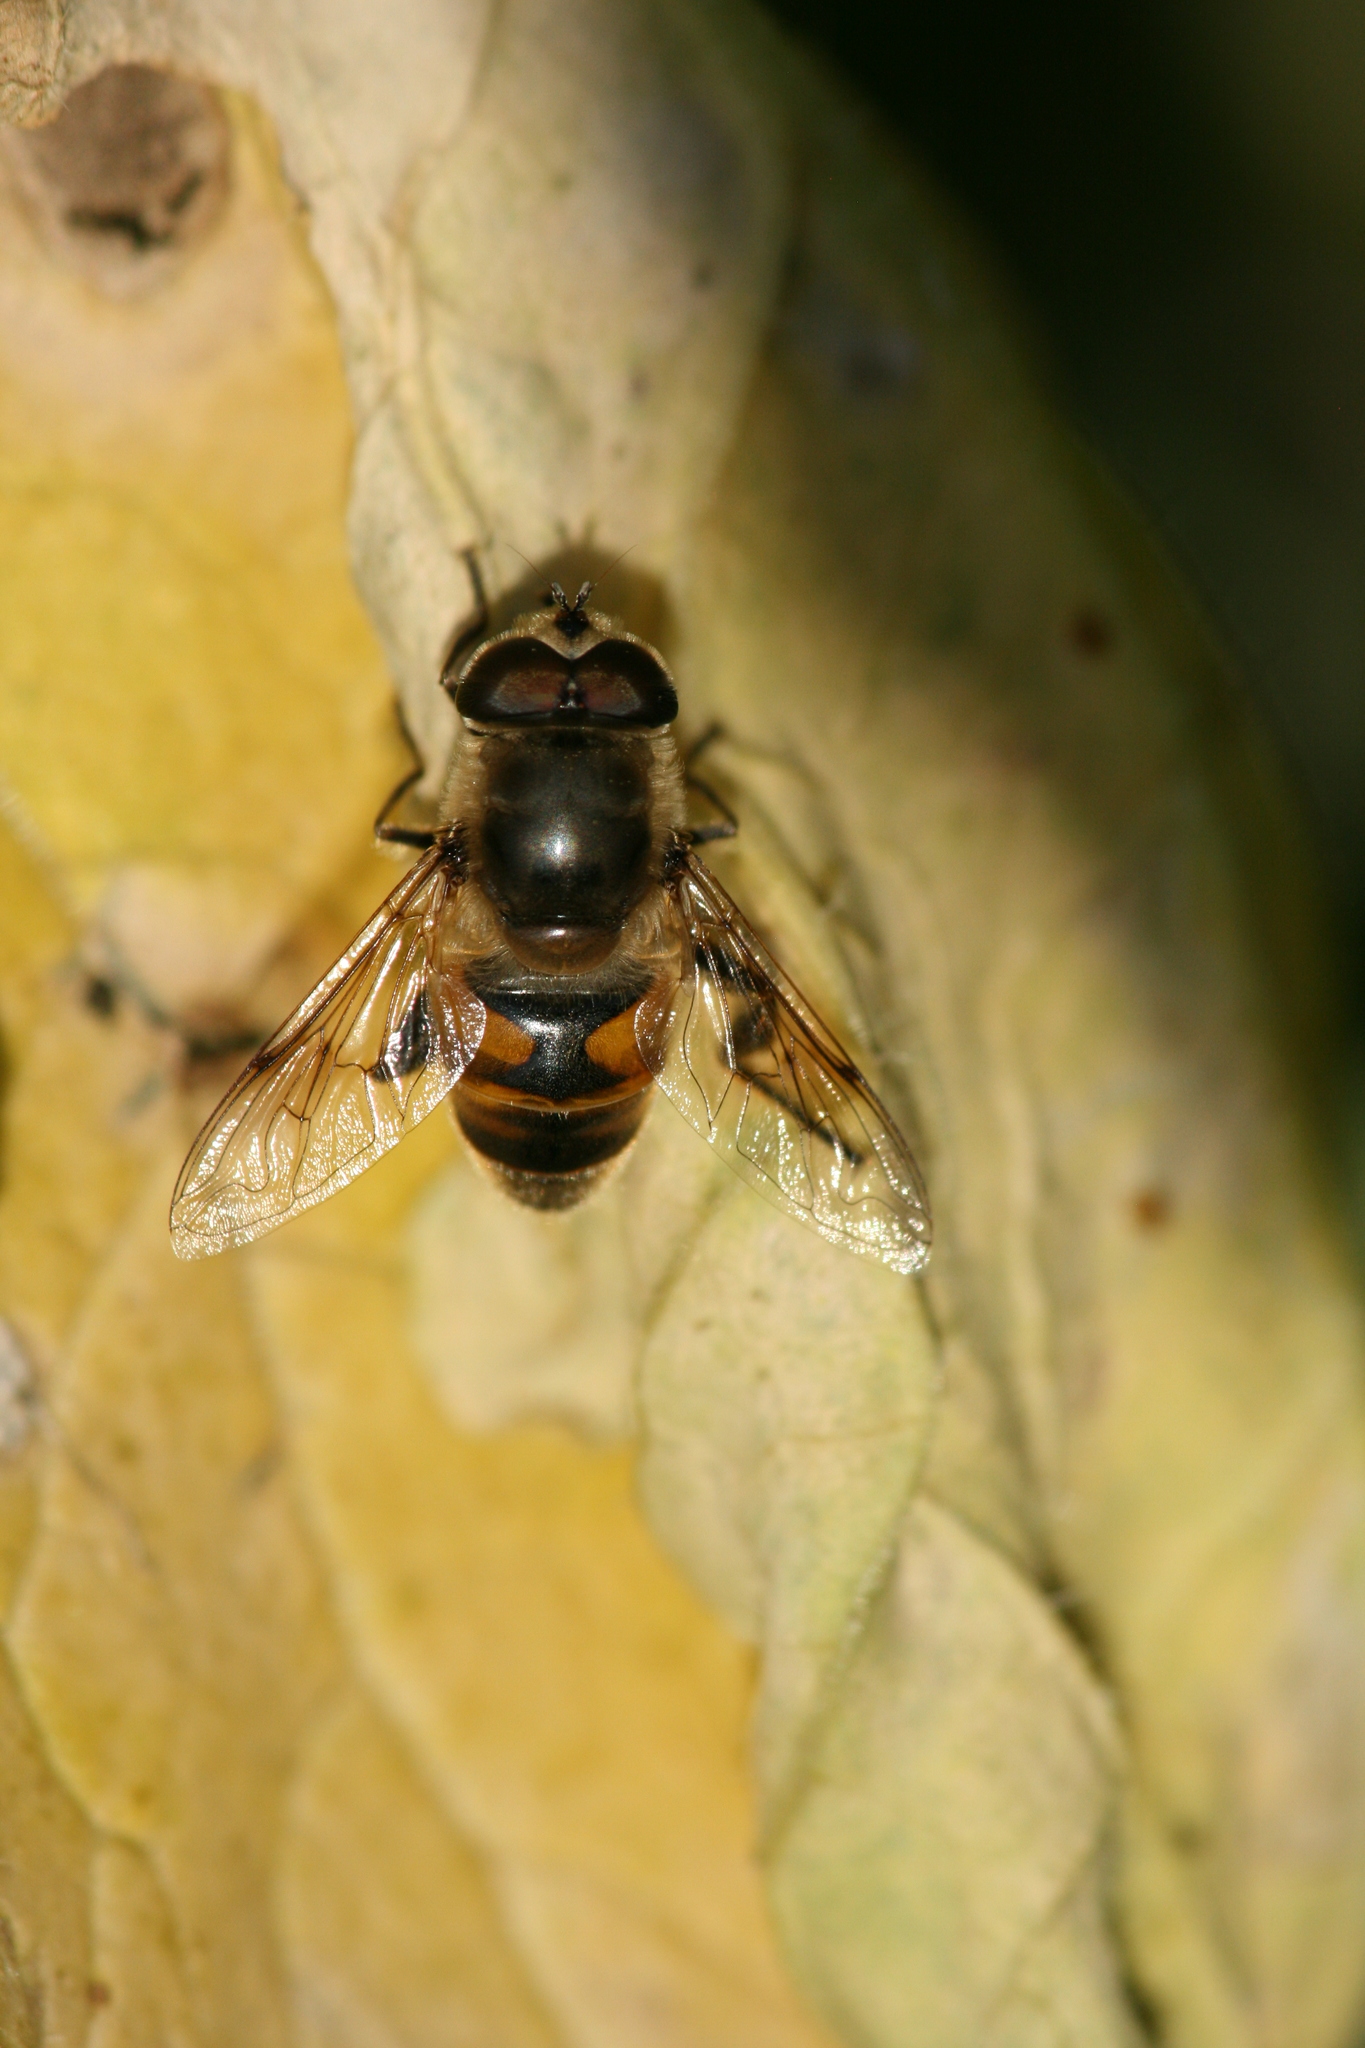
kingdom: Animalia
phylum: Arthropoda
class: Insecta
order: Diptera
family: Syrphidae
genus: Eristalis
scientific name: Eristalis tenax
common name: Drone fly
